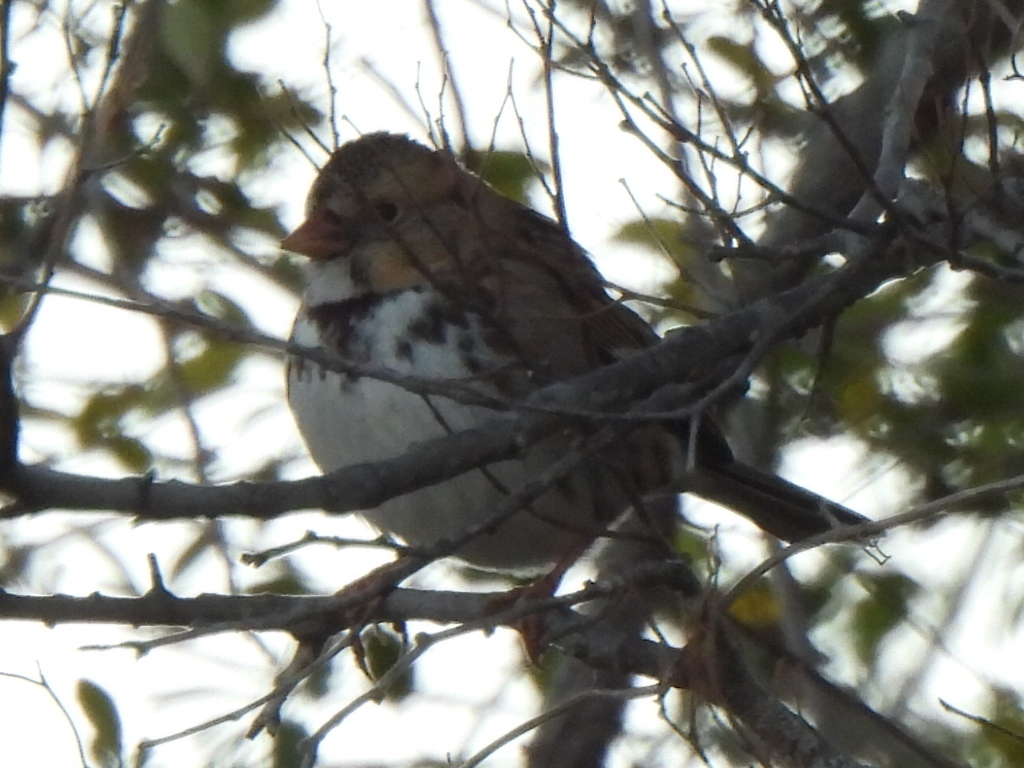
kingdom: Animalia
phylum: Chordata
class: Aves
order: Passeriformes
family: Passerellidae
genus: Zonotrichia
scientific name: Zonotrichia querula
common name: Harris's sparrow
